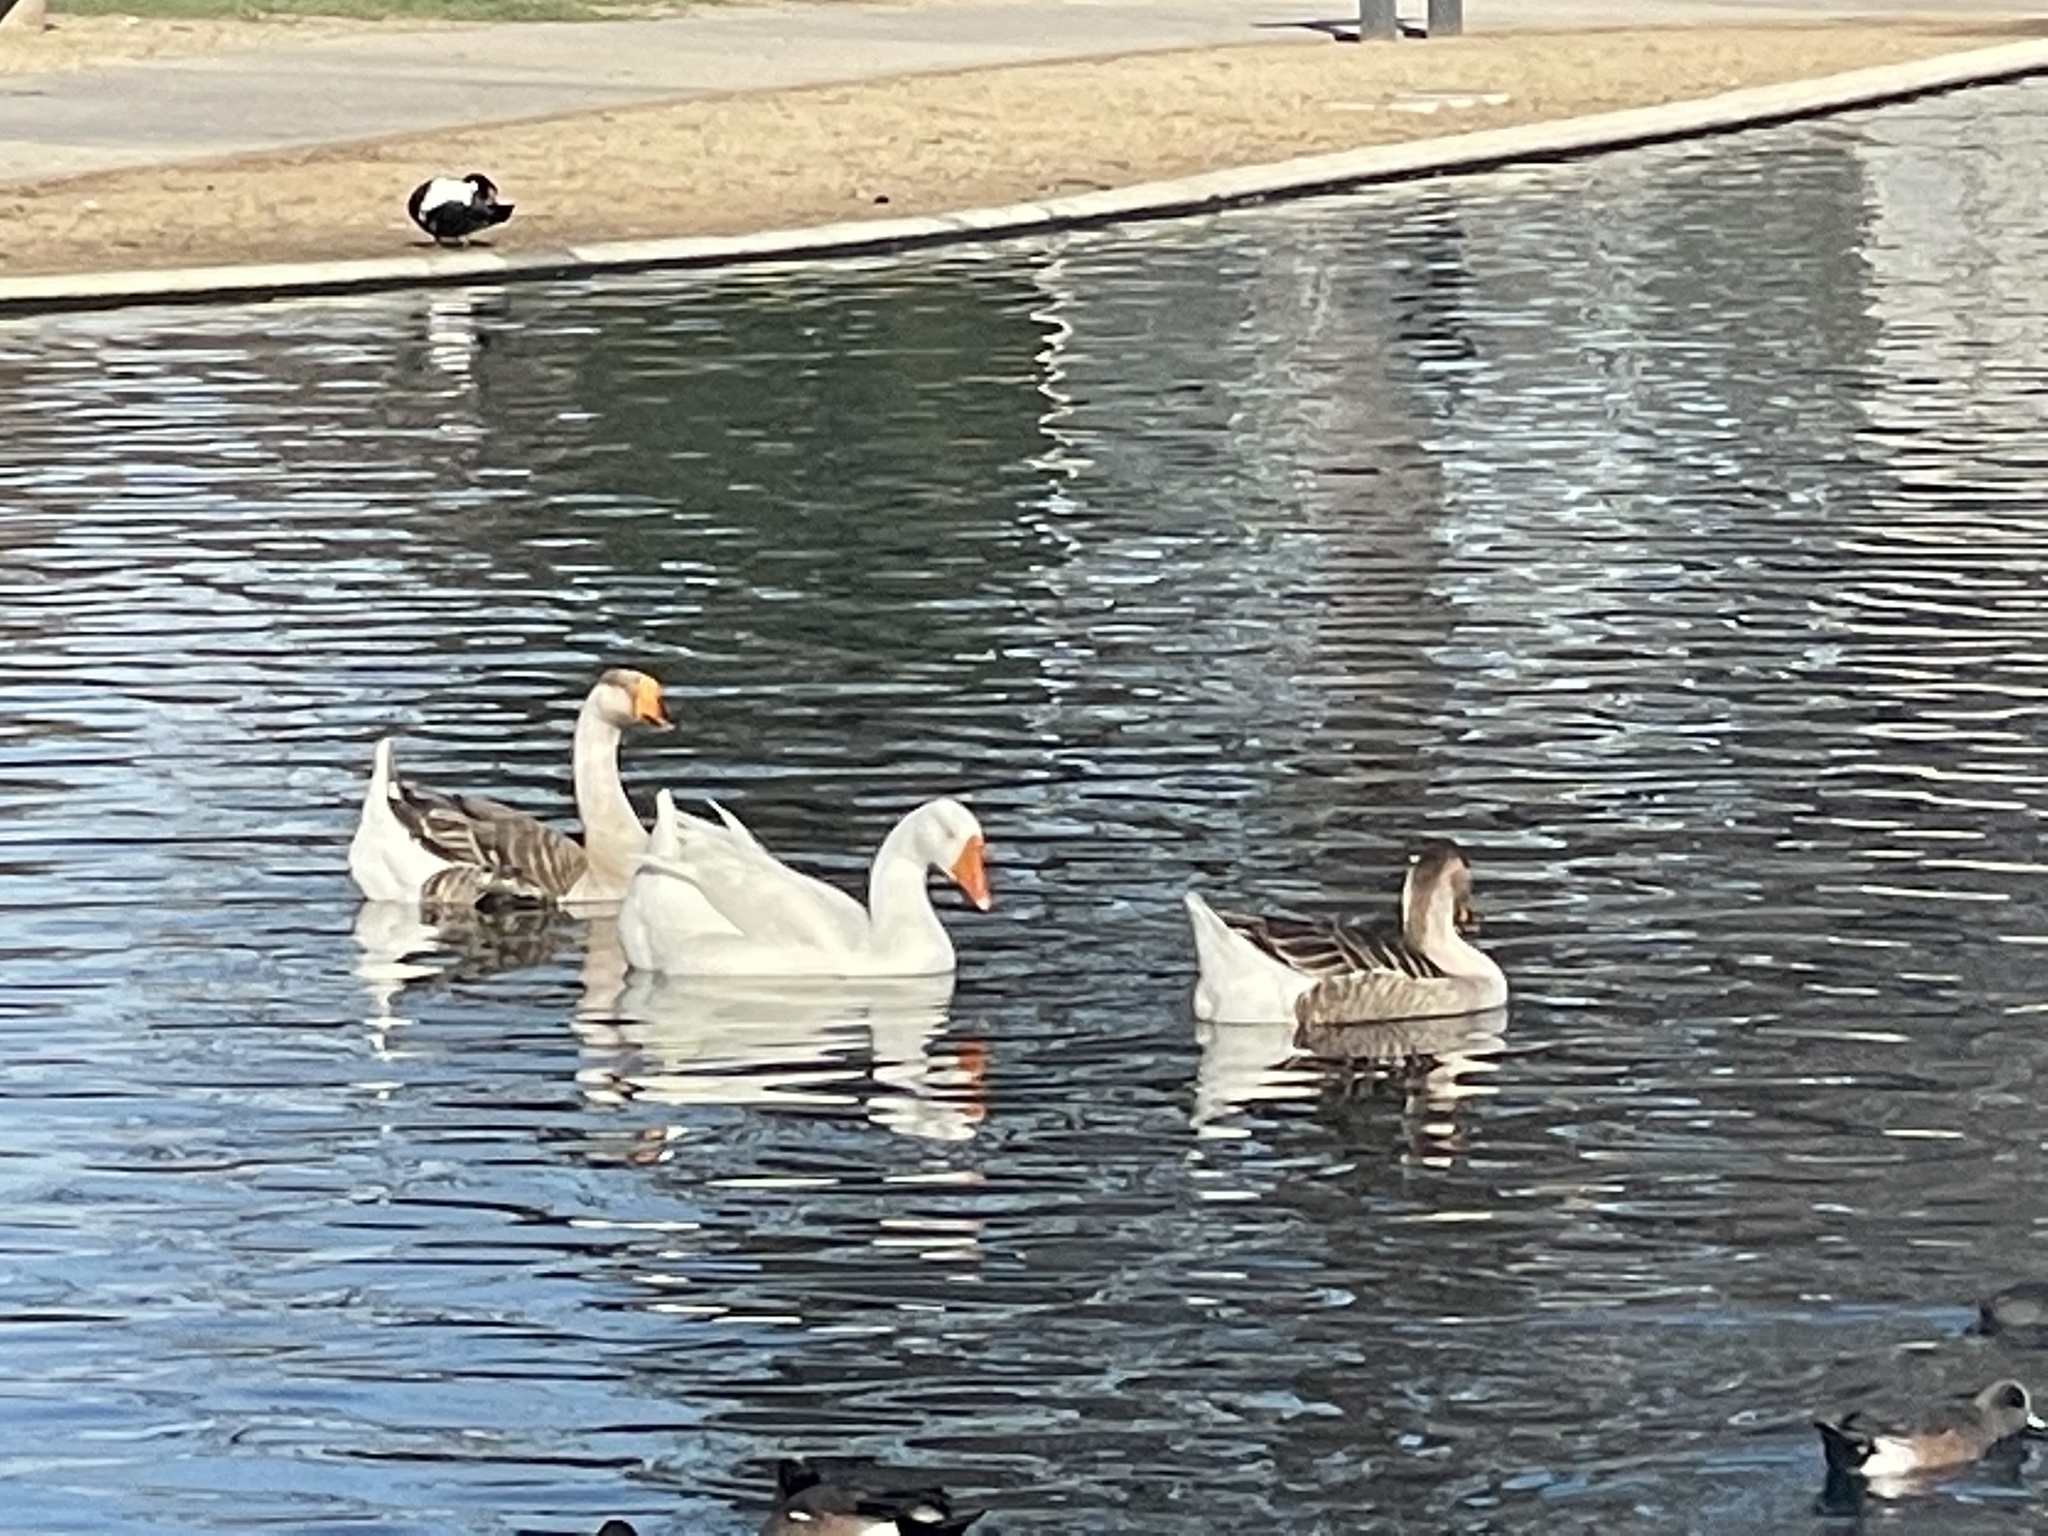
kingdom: Animalia
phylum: Chordata
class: Aves
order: Anseriformes
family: Anatidae
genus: Anser
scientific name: Anser cygnoides
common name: Swan goose
